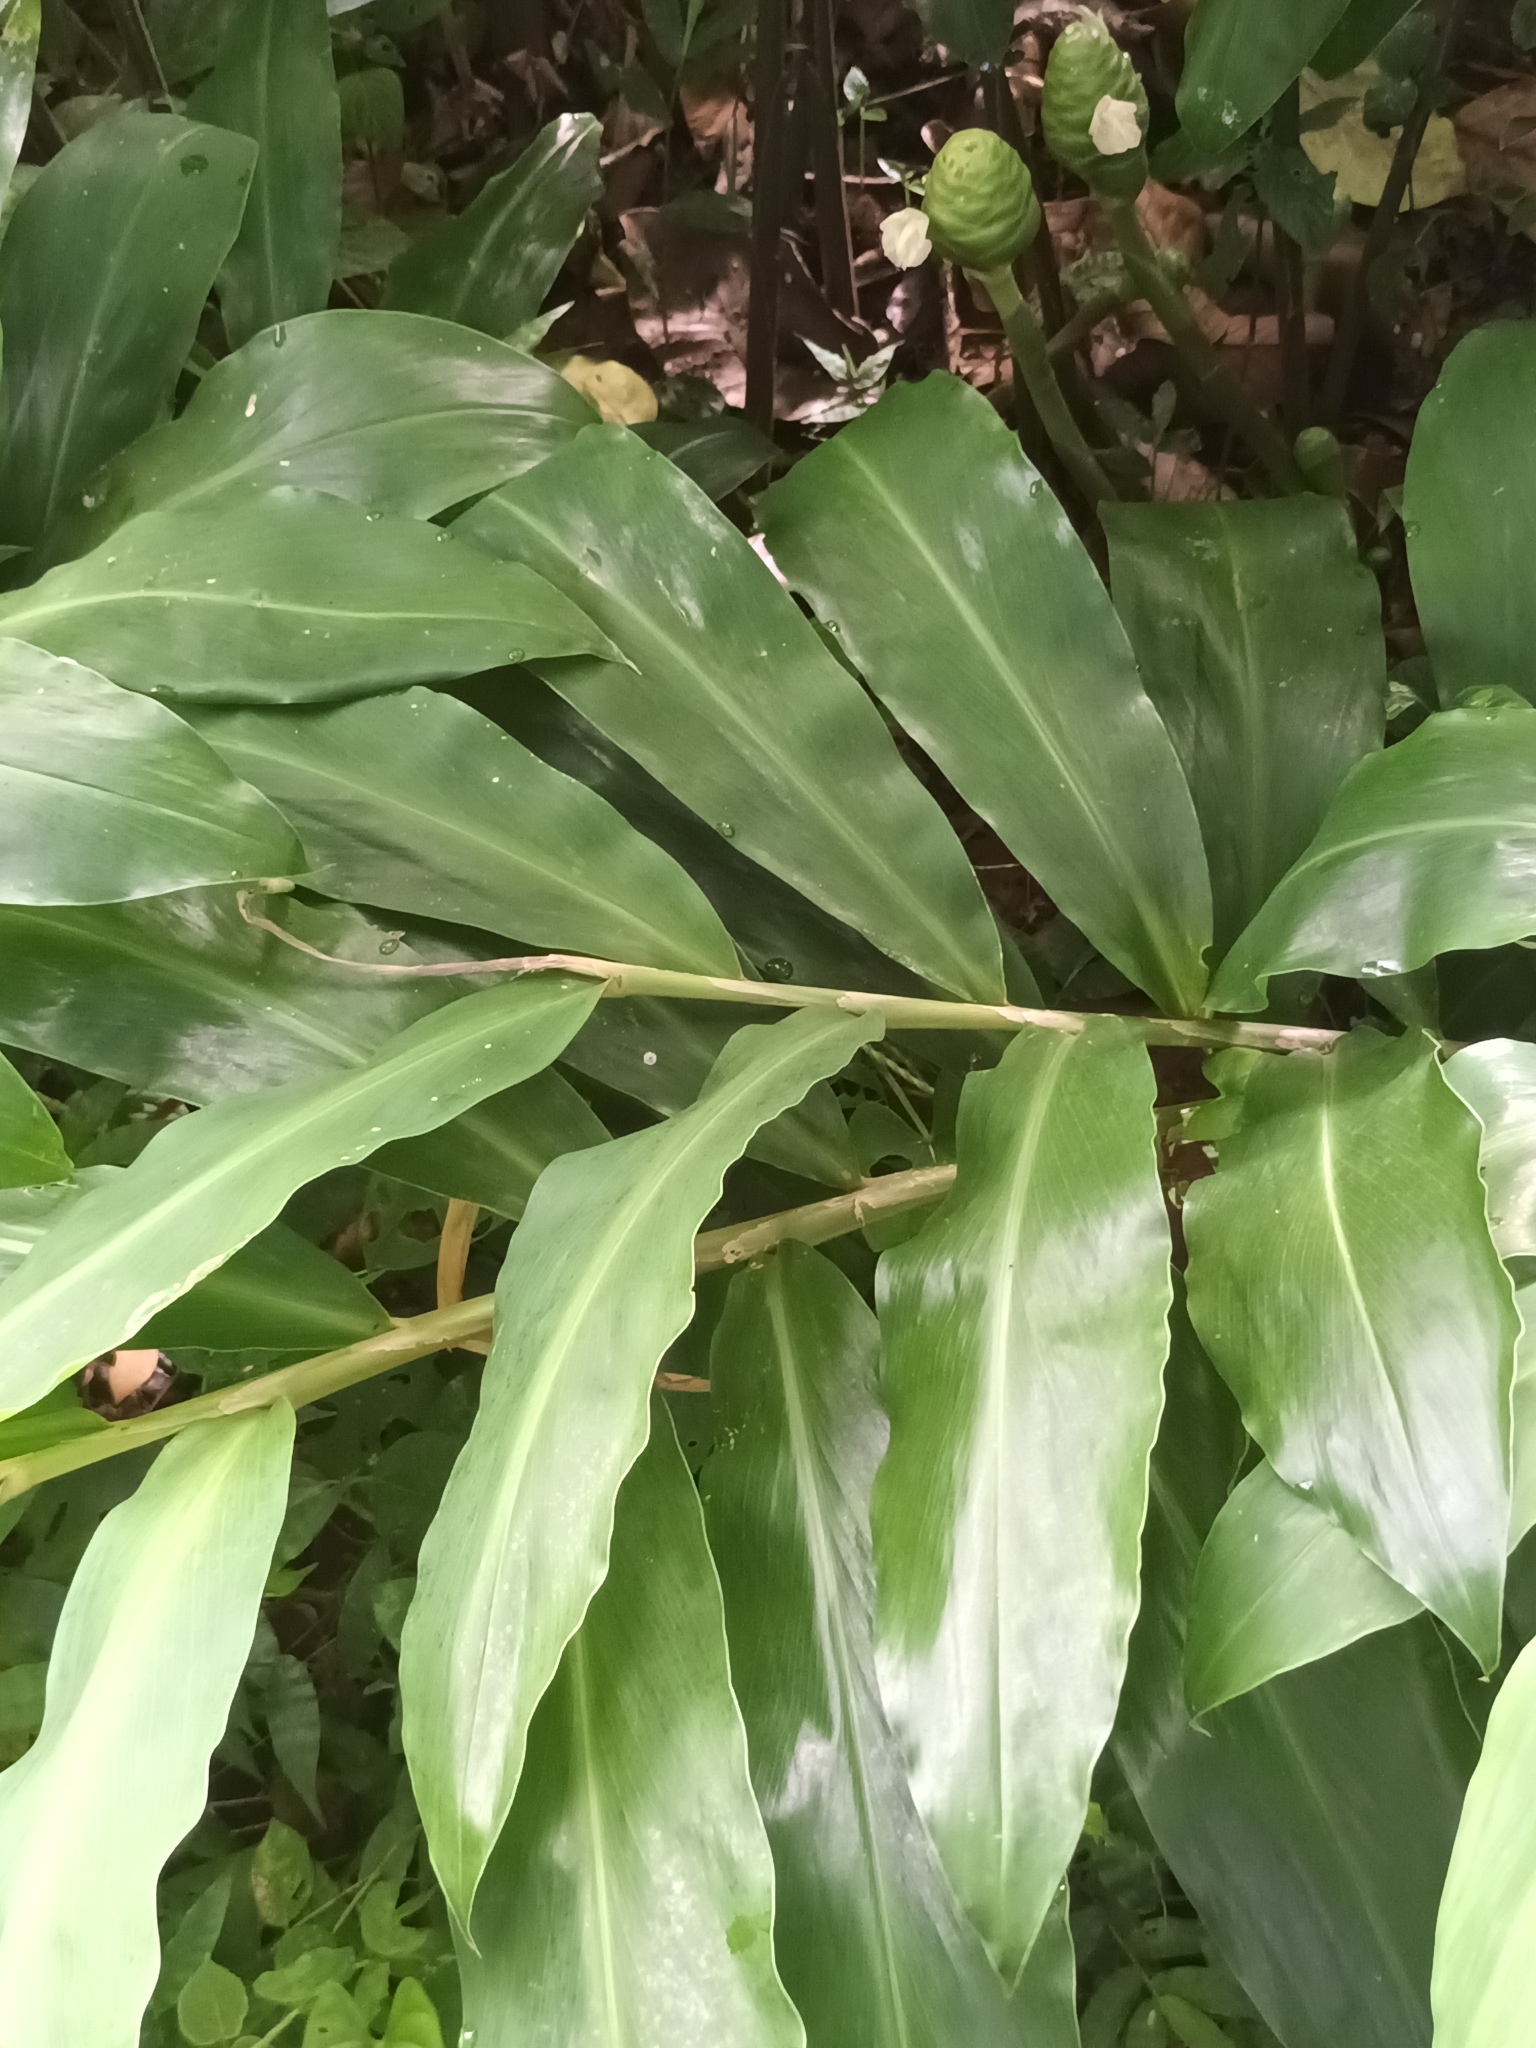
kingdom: Plantae
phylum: Tracheophyta
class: Liliopsida
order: Zingiberales
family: Zingiberaceae
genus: Zingiber
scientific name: Zingiber zerumbet
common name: Bitter ginger
